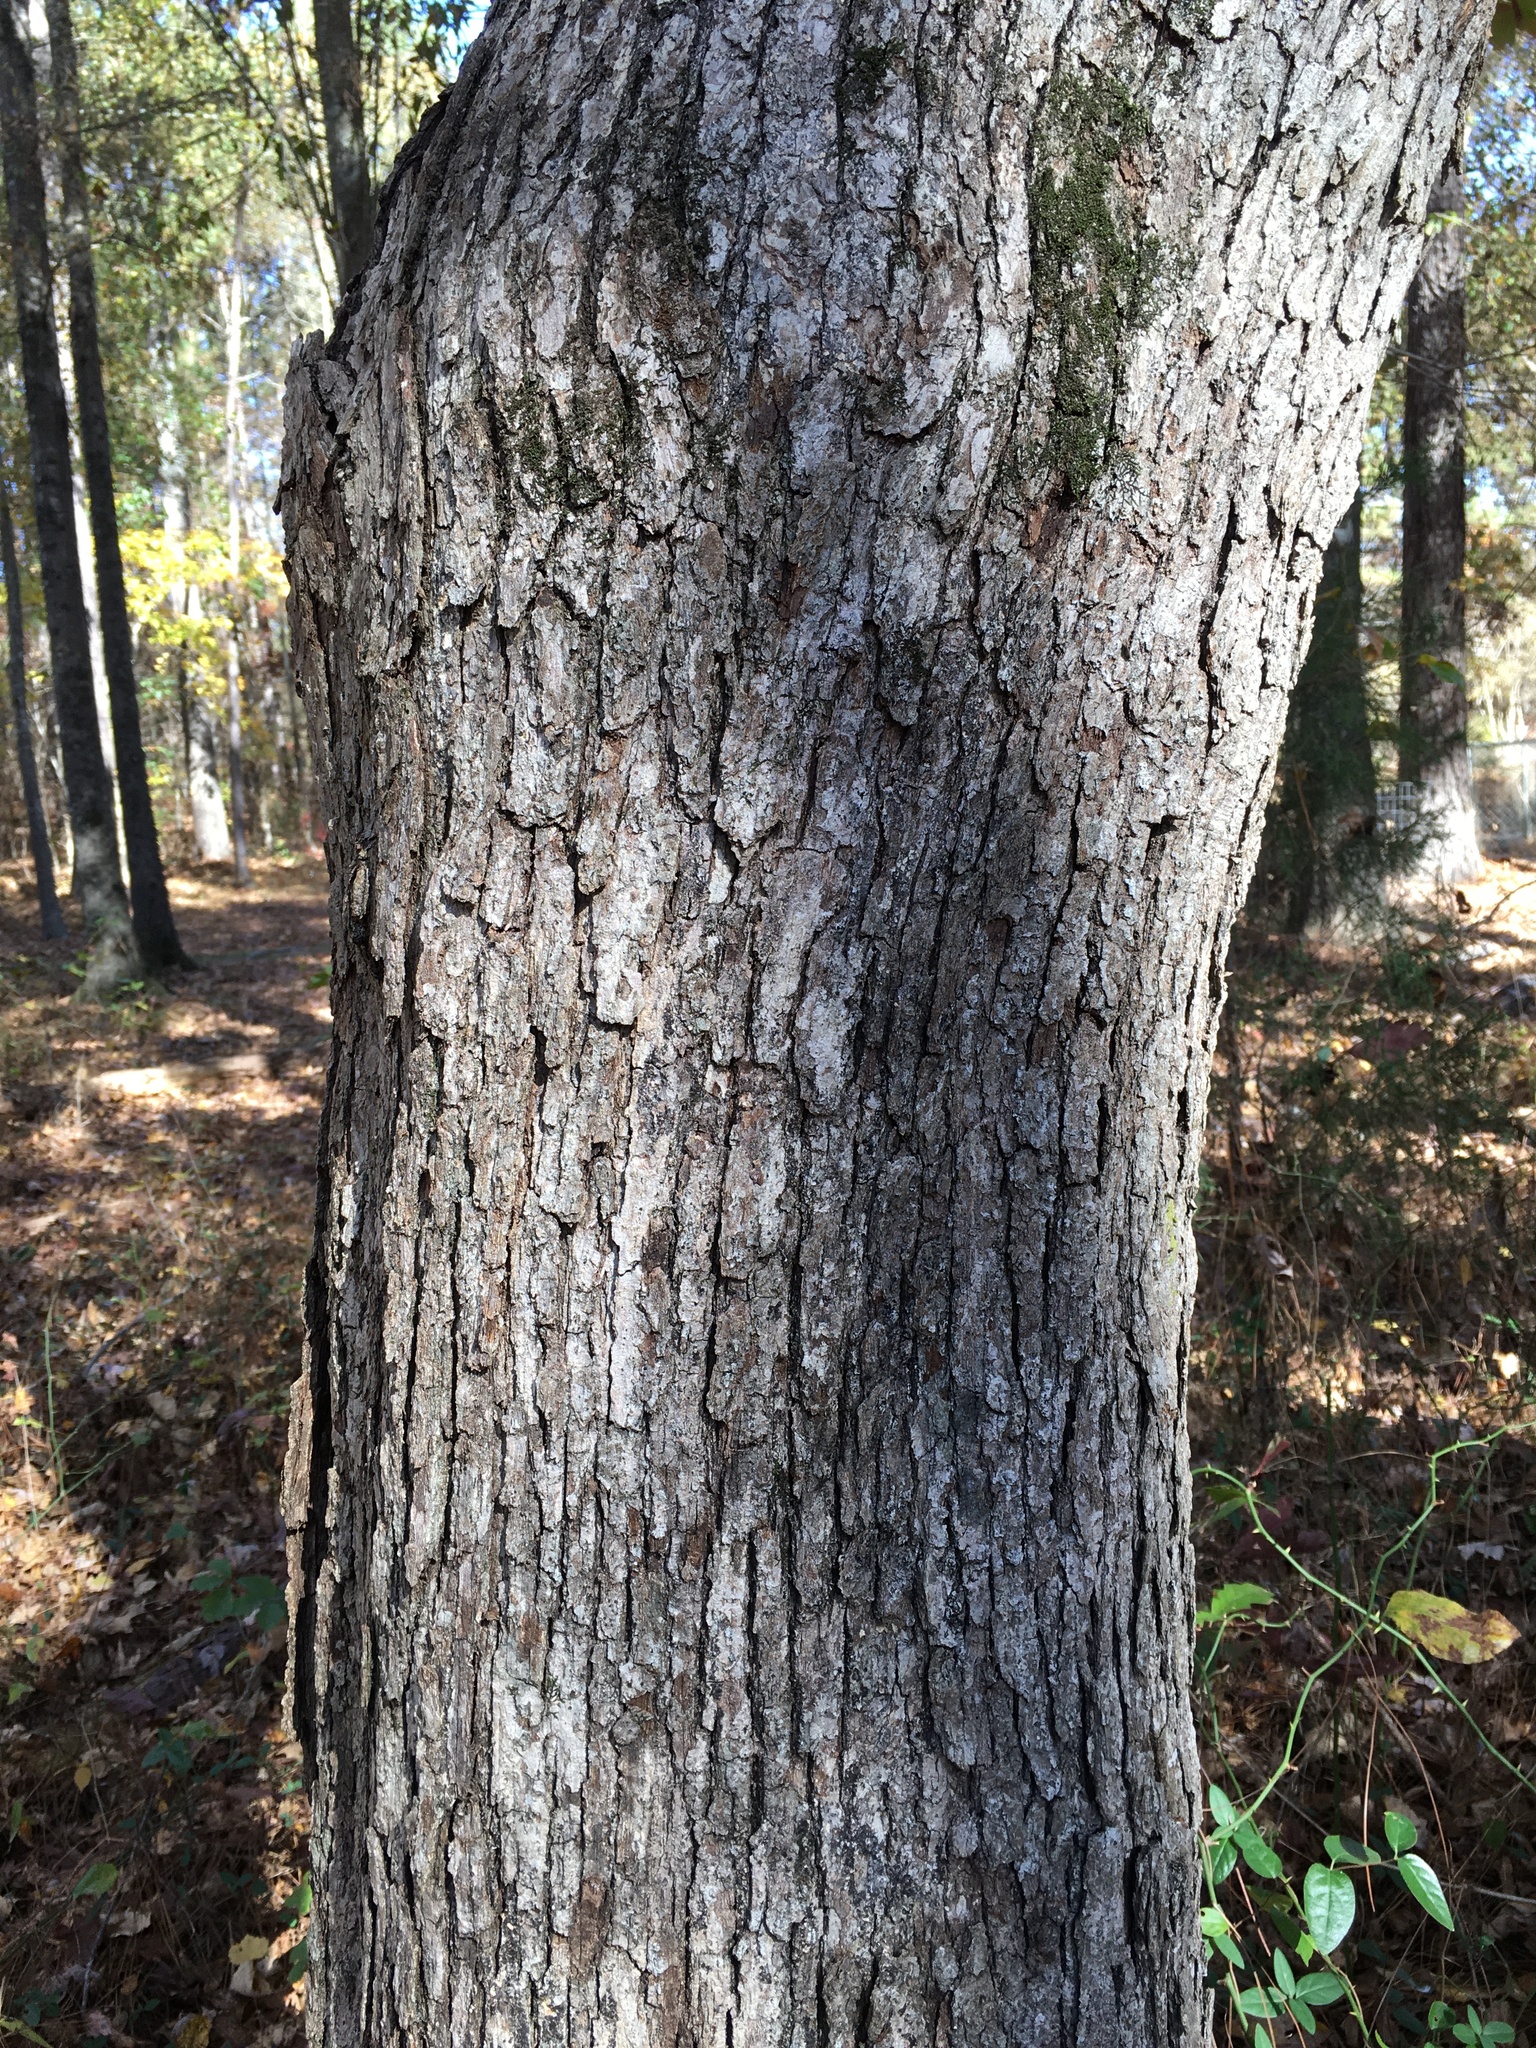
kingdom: Plantae
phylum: Tracheophyta
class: Magnoliopsida
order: Fagales
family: Fagaceae
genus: Quercus
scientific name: Quercus alba
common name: White oak
